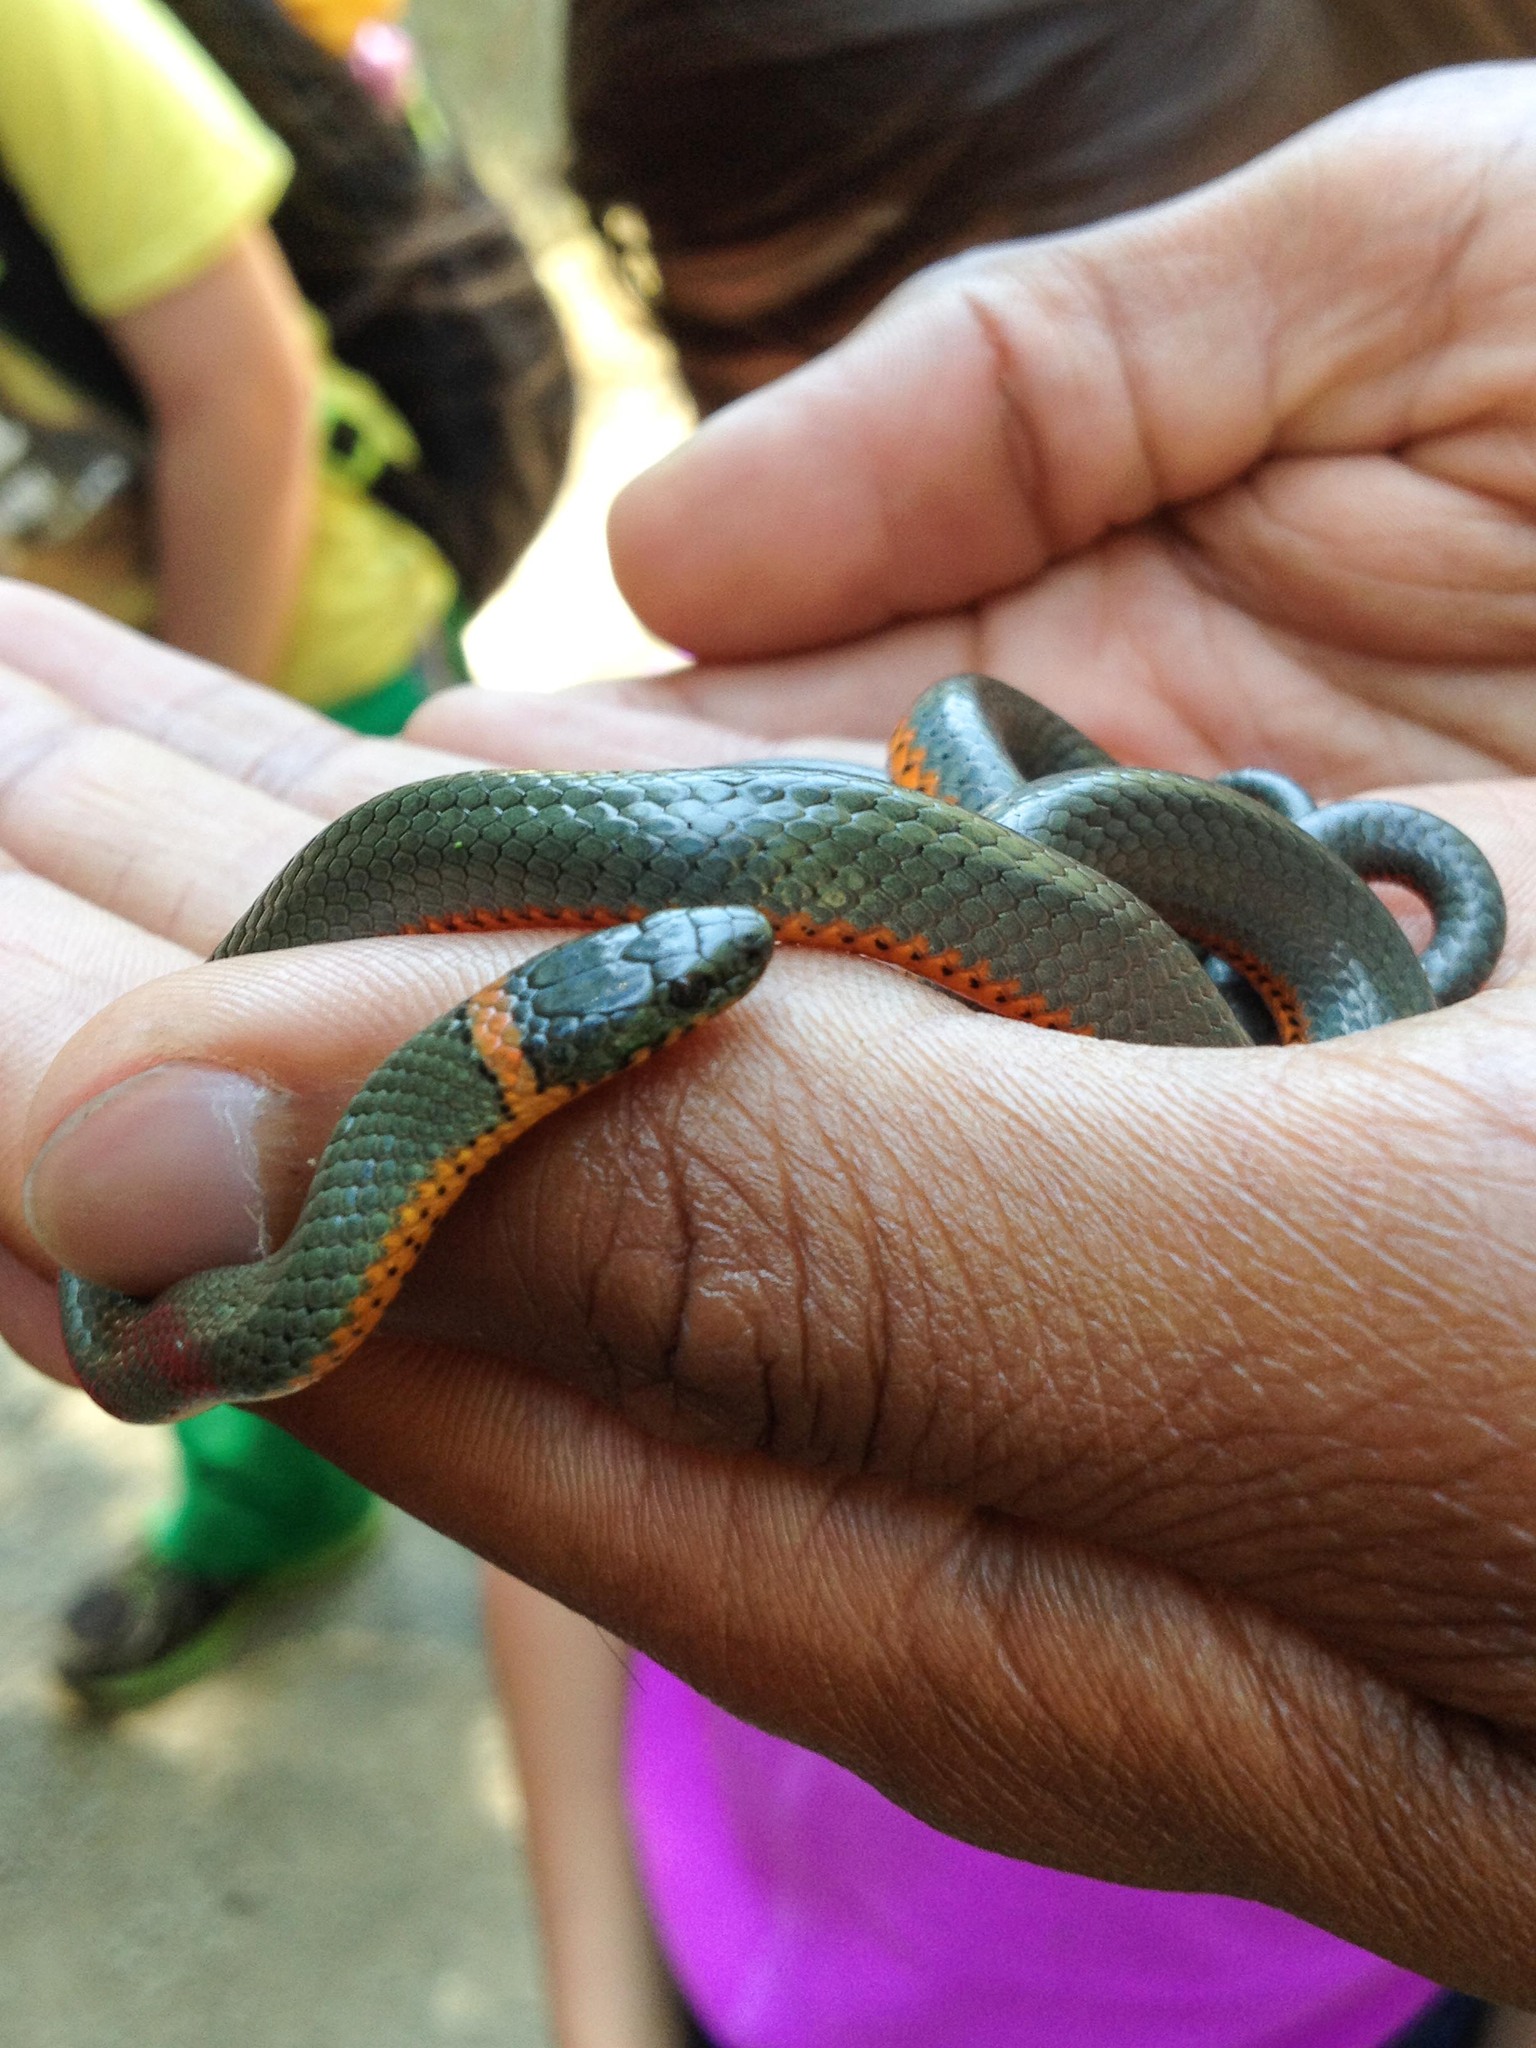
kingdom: Animalia
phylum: Chordata
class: Squamata
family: Colubridae
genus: Diadophis
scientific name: Diadophis punctatus
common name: Ringneck snake
